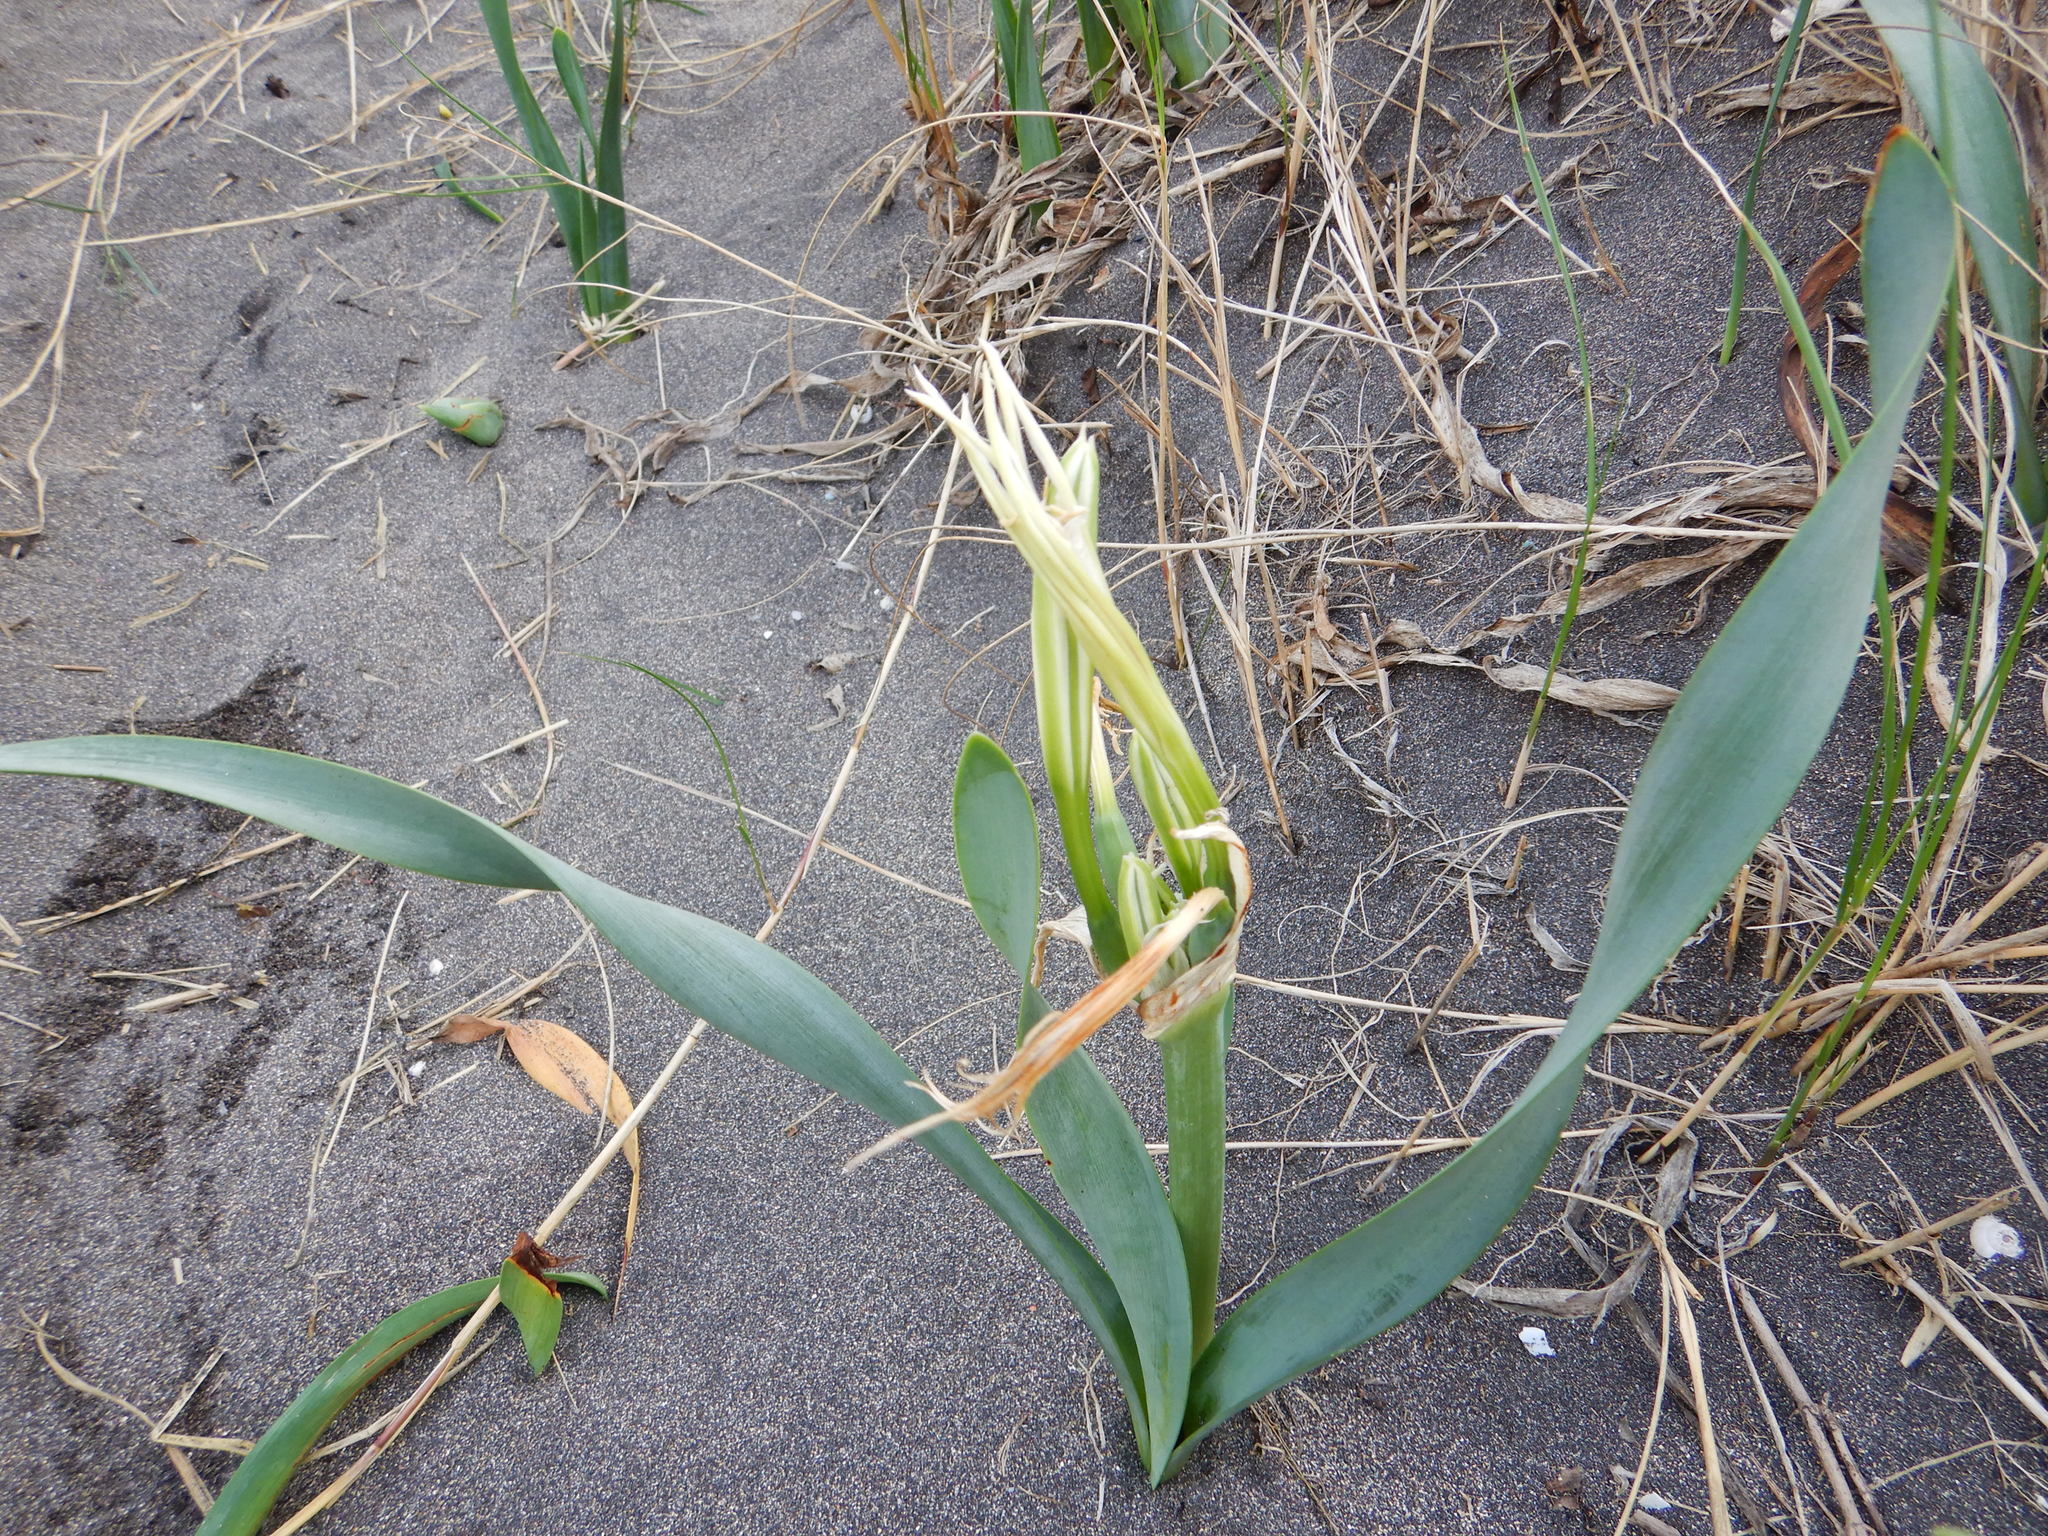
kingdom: Plantae
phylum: Tracheophyta
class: Liliopsida
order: Asparagales
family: Amaryllidaceae
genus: Pancratium
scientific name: Pancratium maritimum
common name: Sea-daffodil
